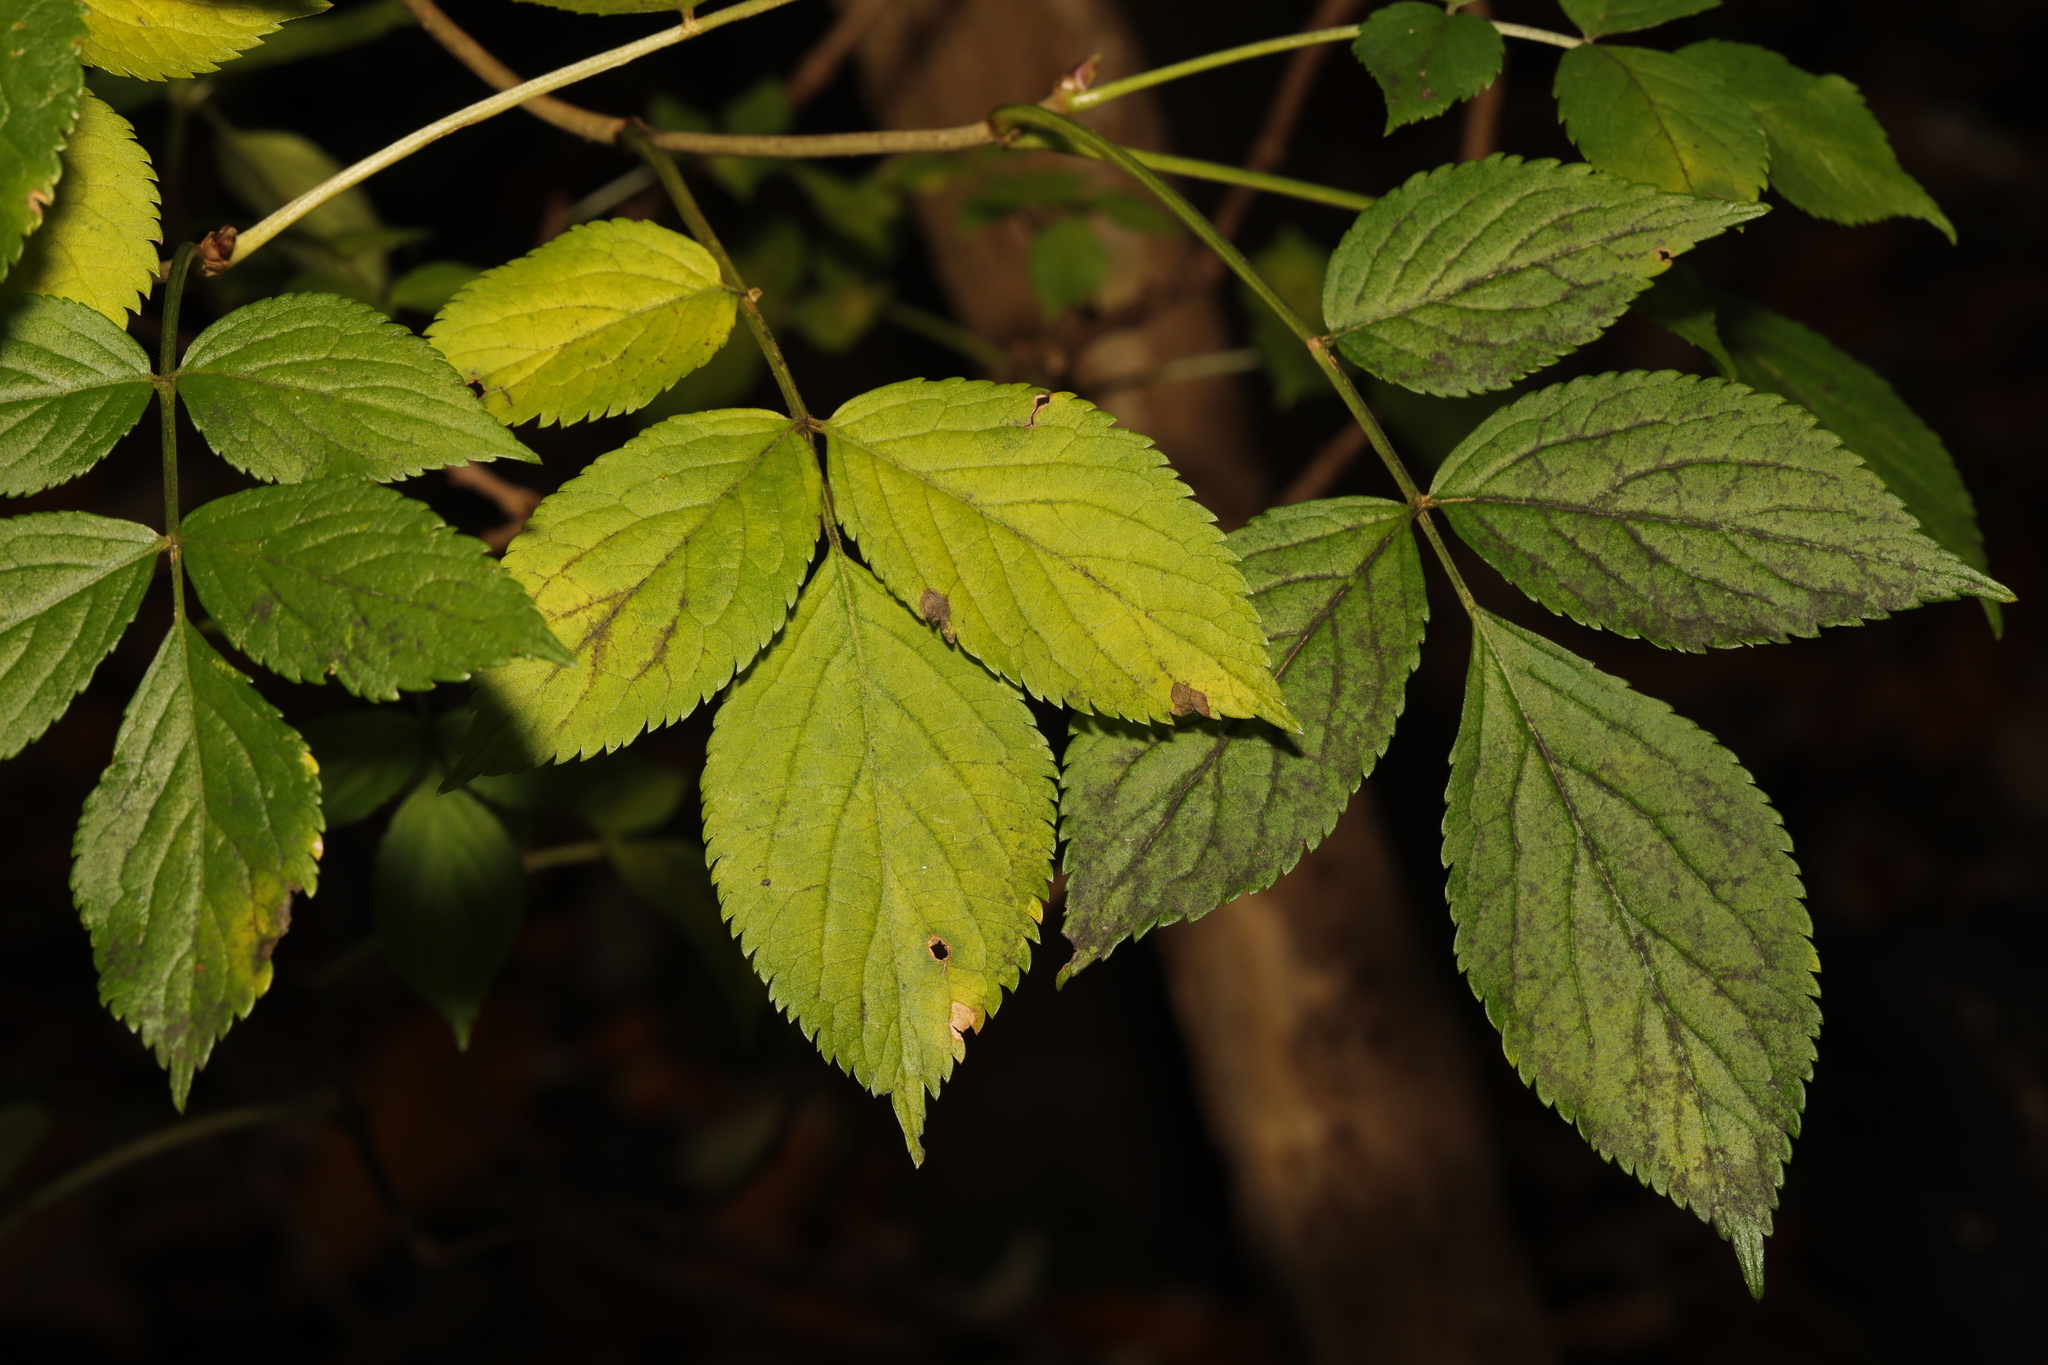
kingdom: Plantae
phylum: Tracheophyta
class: Magnoliopsida
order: Dipsacales
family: Viburnaceae
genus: Sambucus
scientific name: Sambucus nigra
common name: Elder
